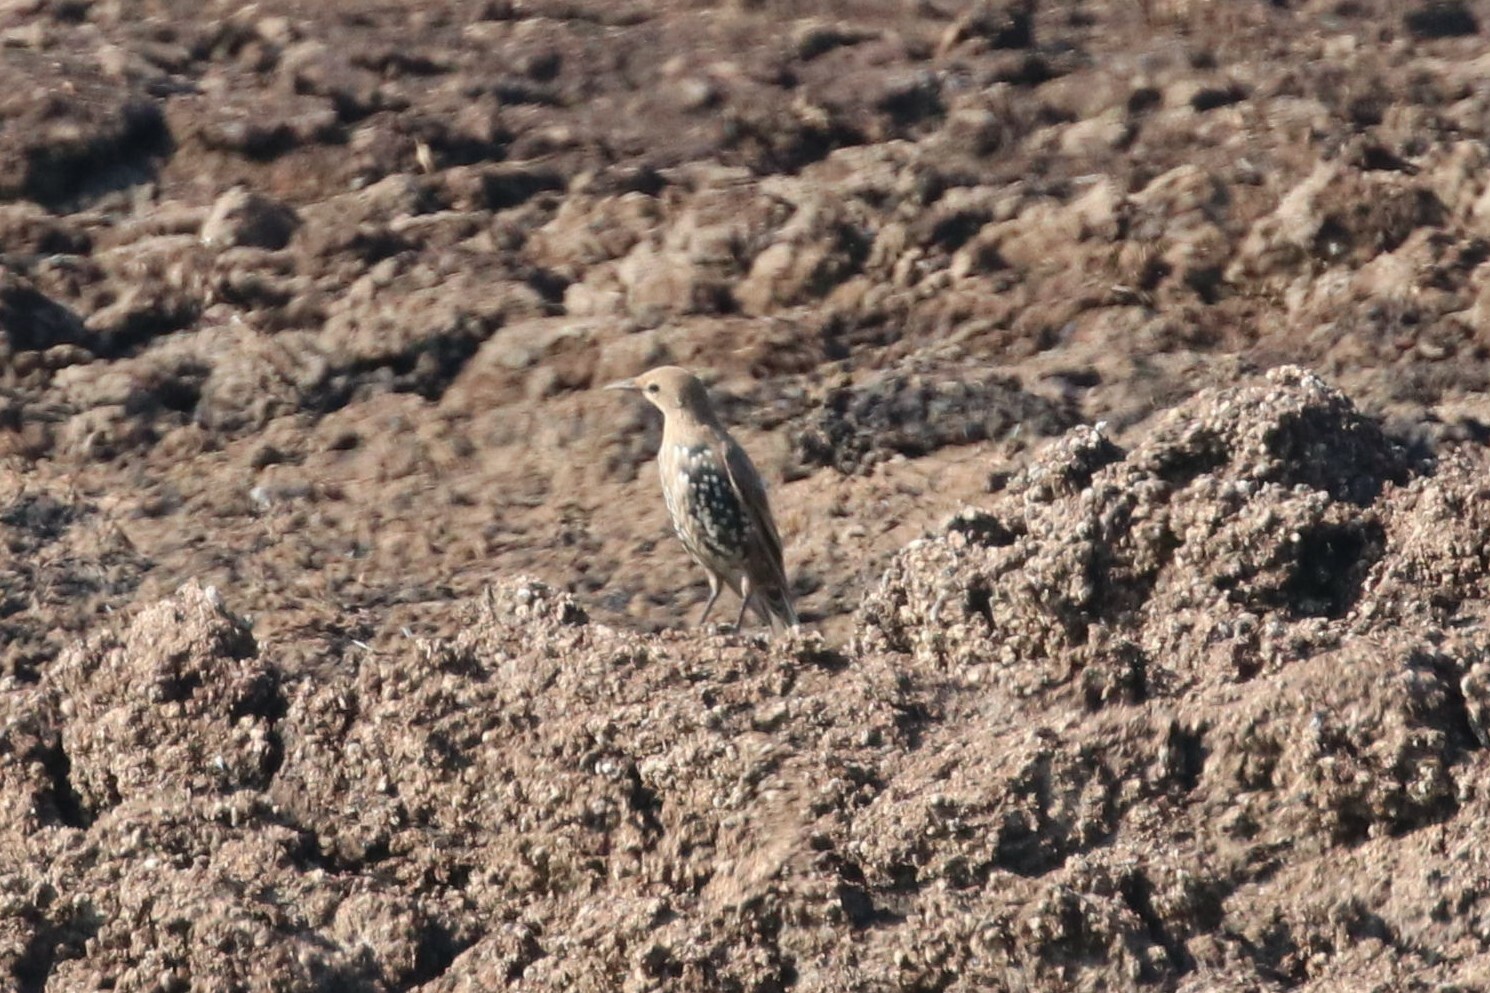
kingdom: Animalia
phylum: Chordata
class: Aves
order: Passeriformes
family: Sturnidae
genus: Sturnus
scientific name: Sturnus vulgaris
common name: Common starling
